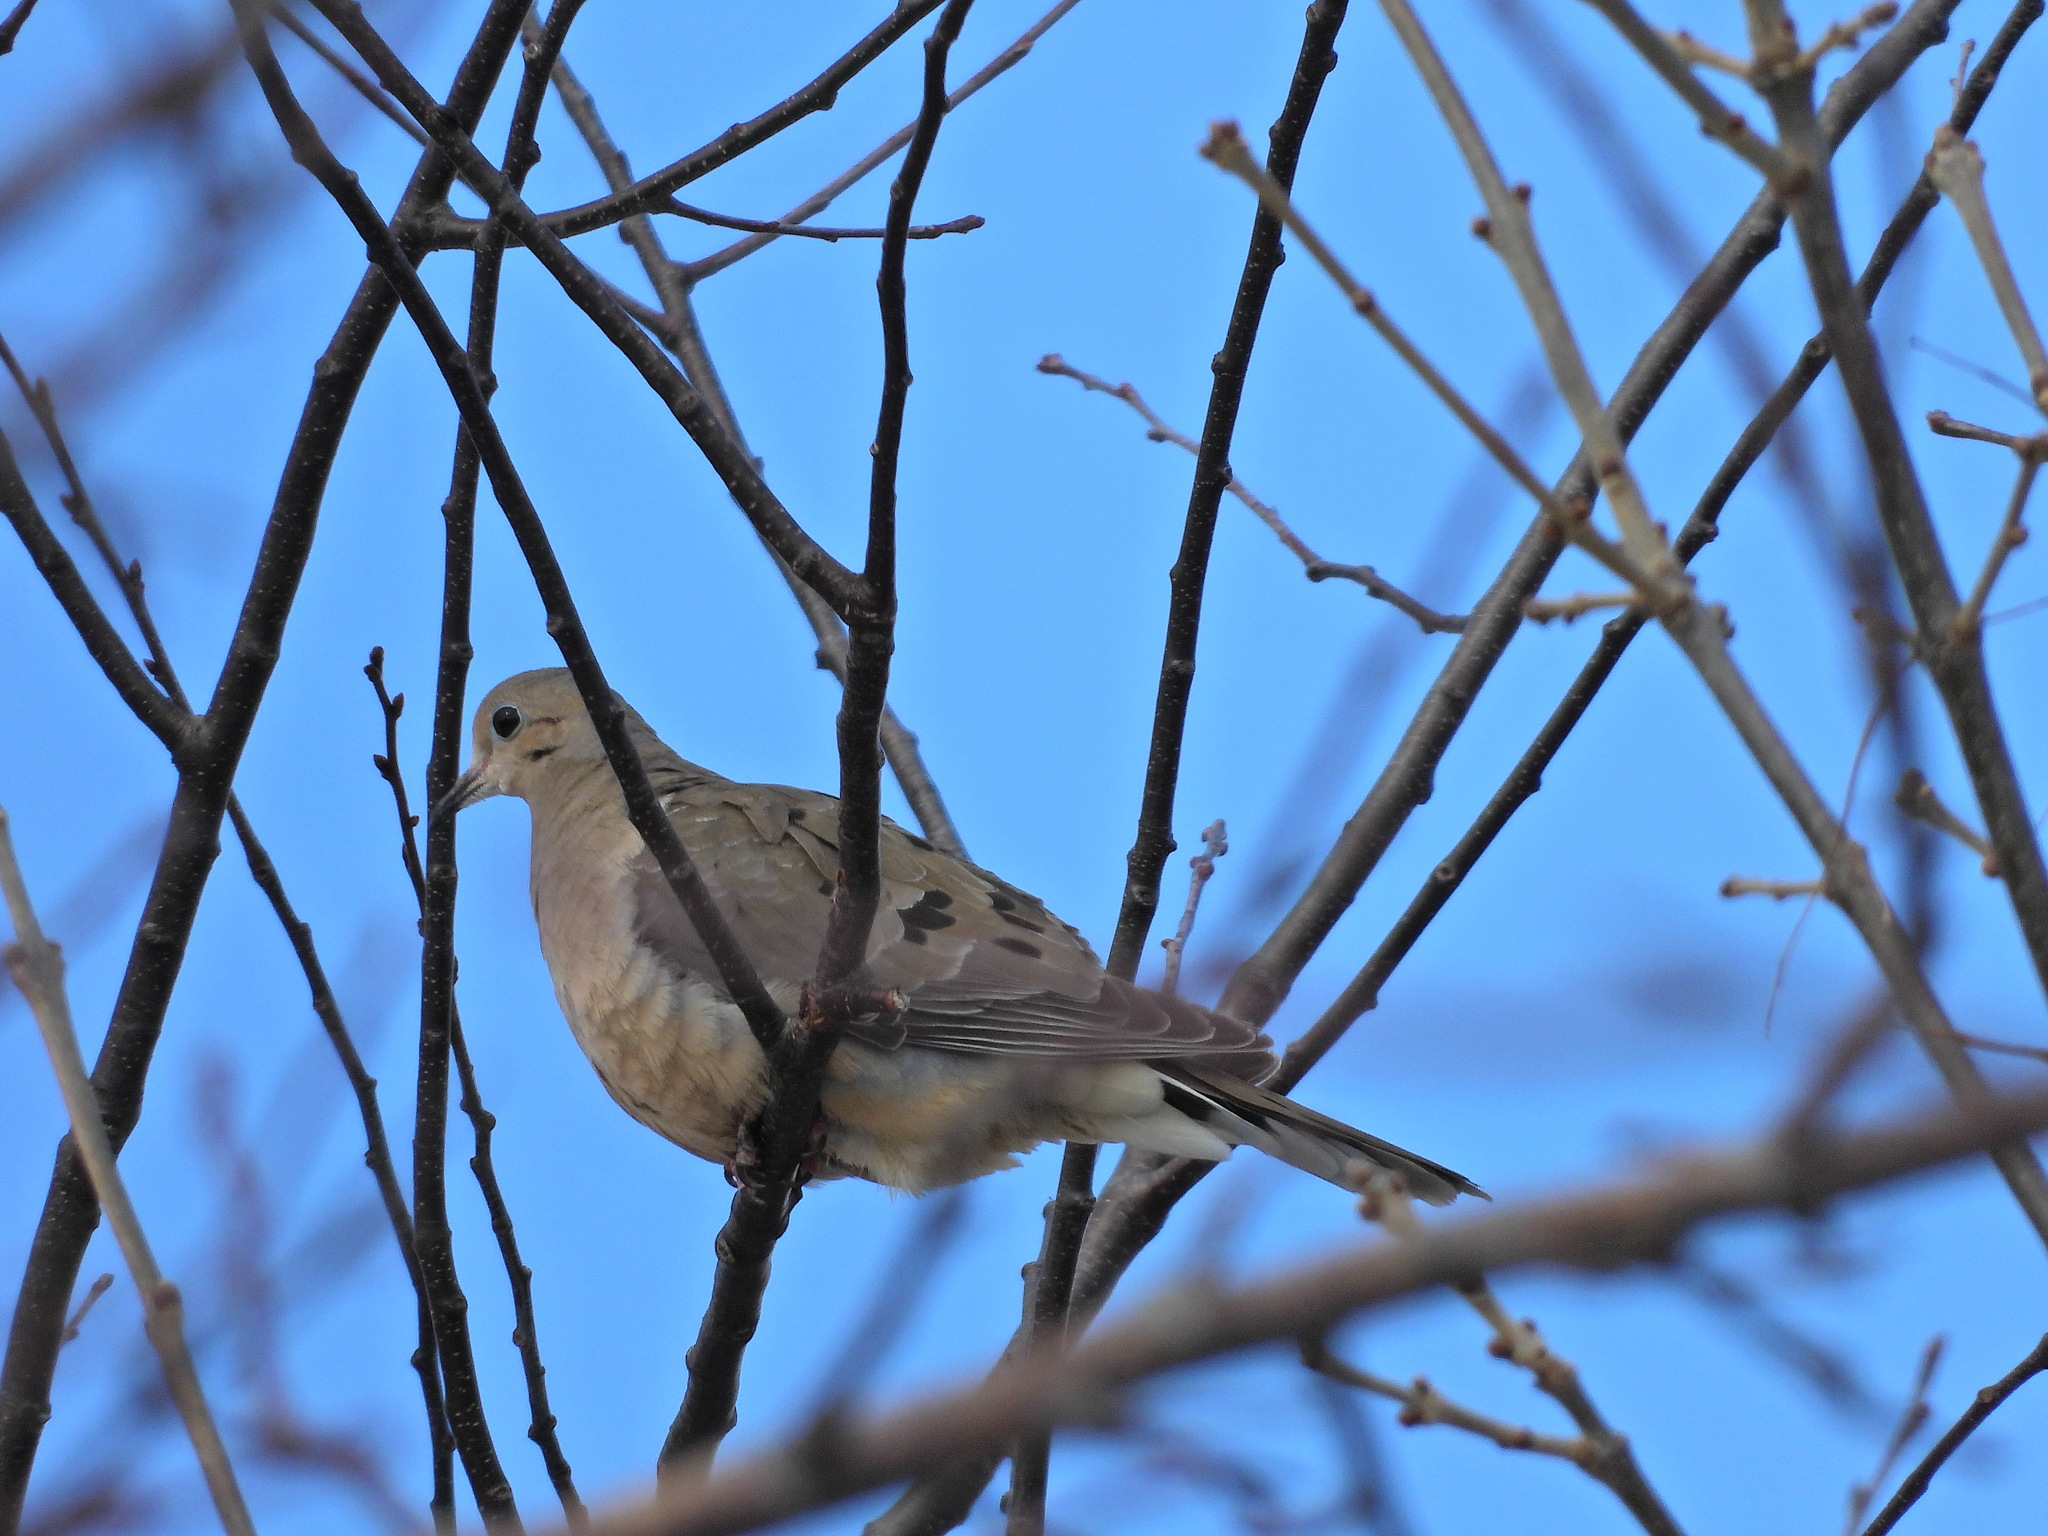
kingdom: Animalia
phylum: Chordata
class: Aves
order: Columbiformes
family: Columbidae
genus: Zenaida
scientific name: Zenaida macroura
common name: Mourning dove
